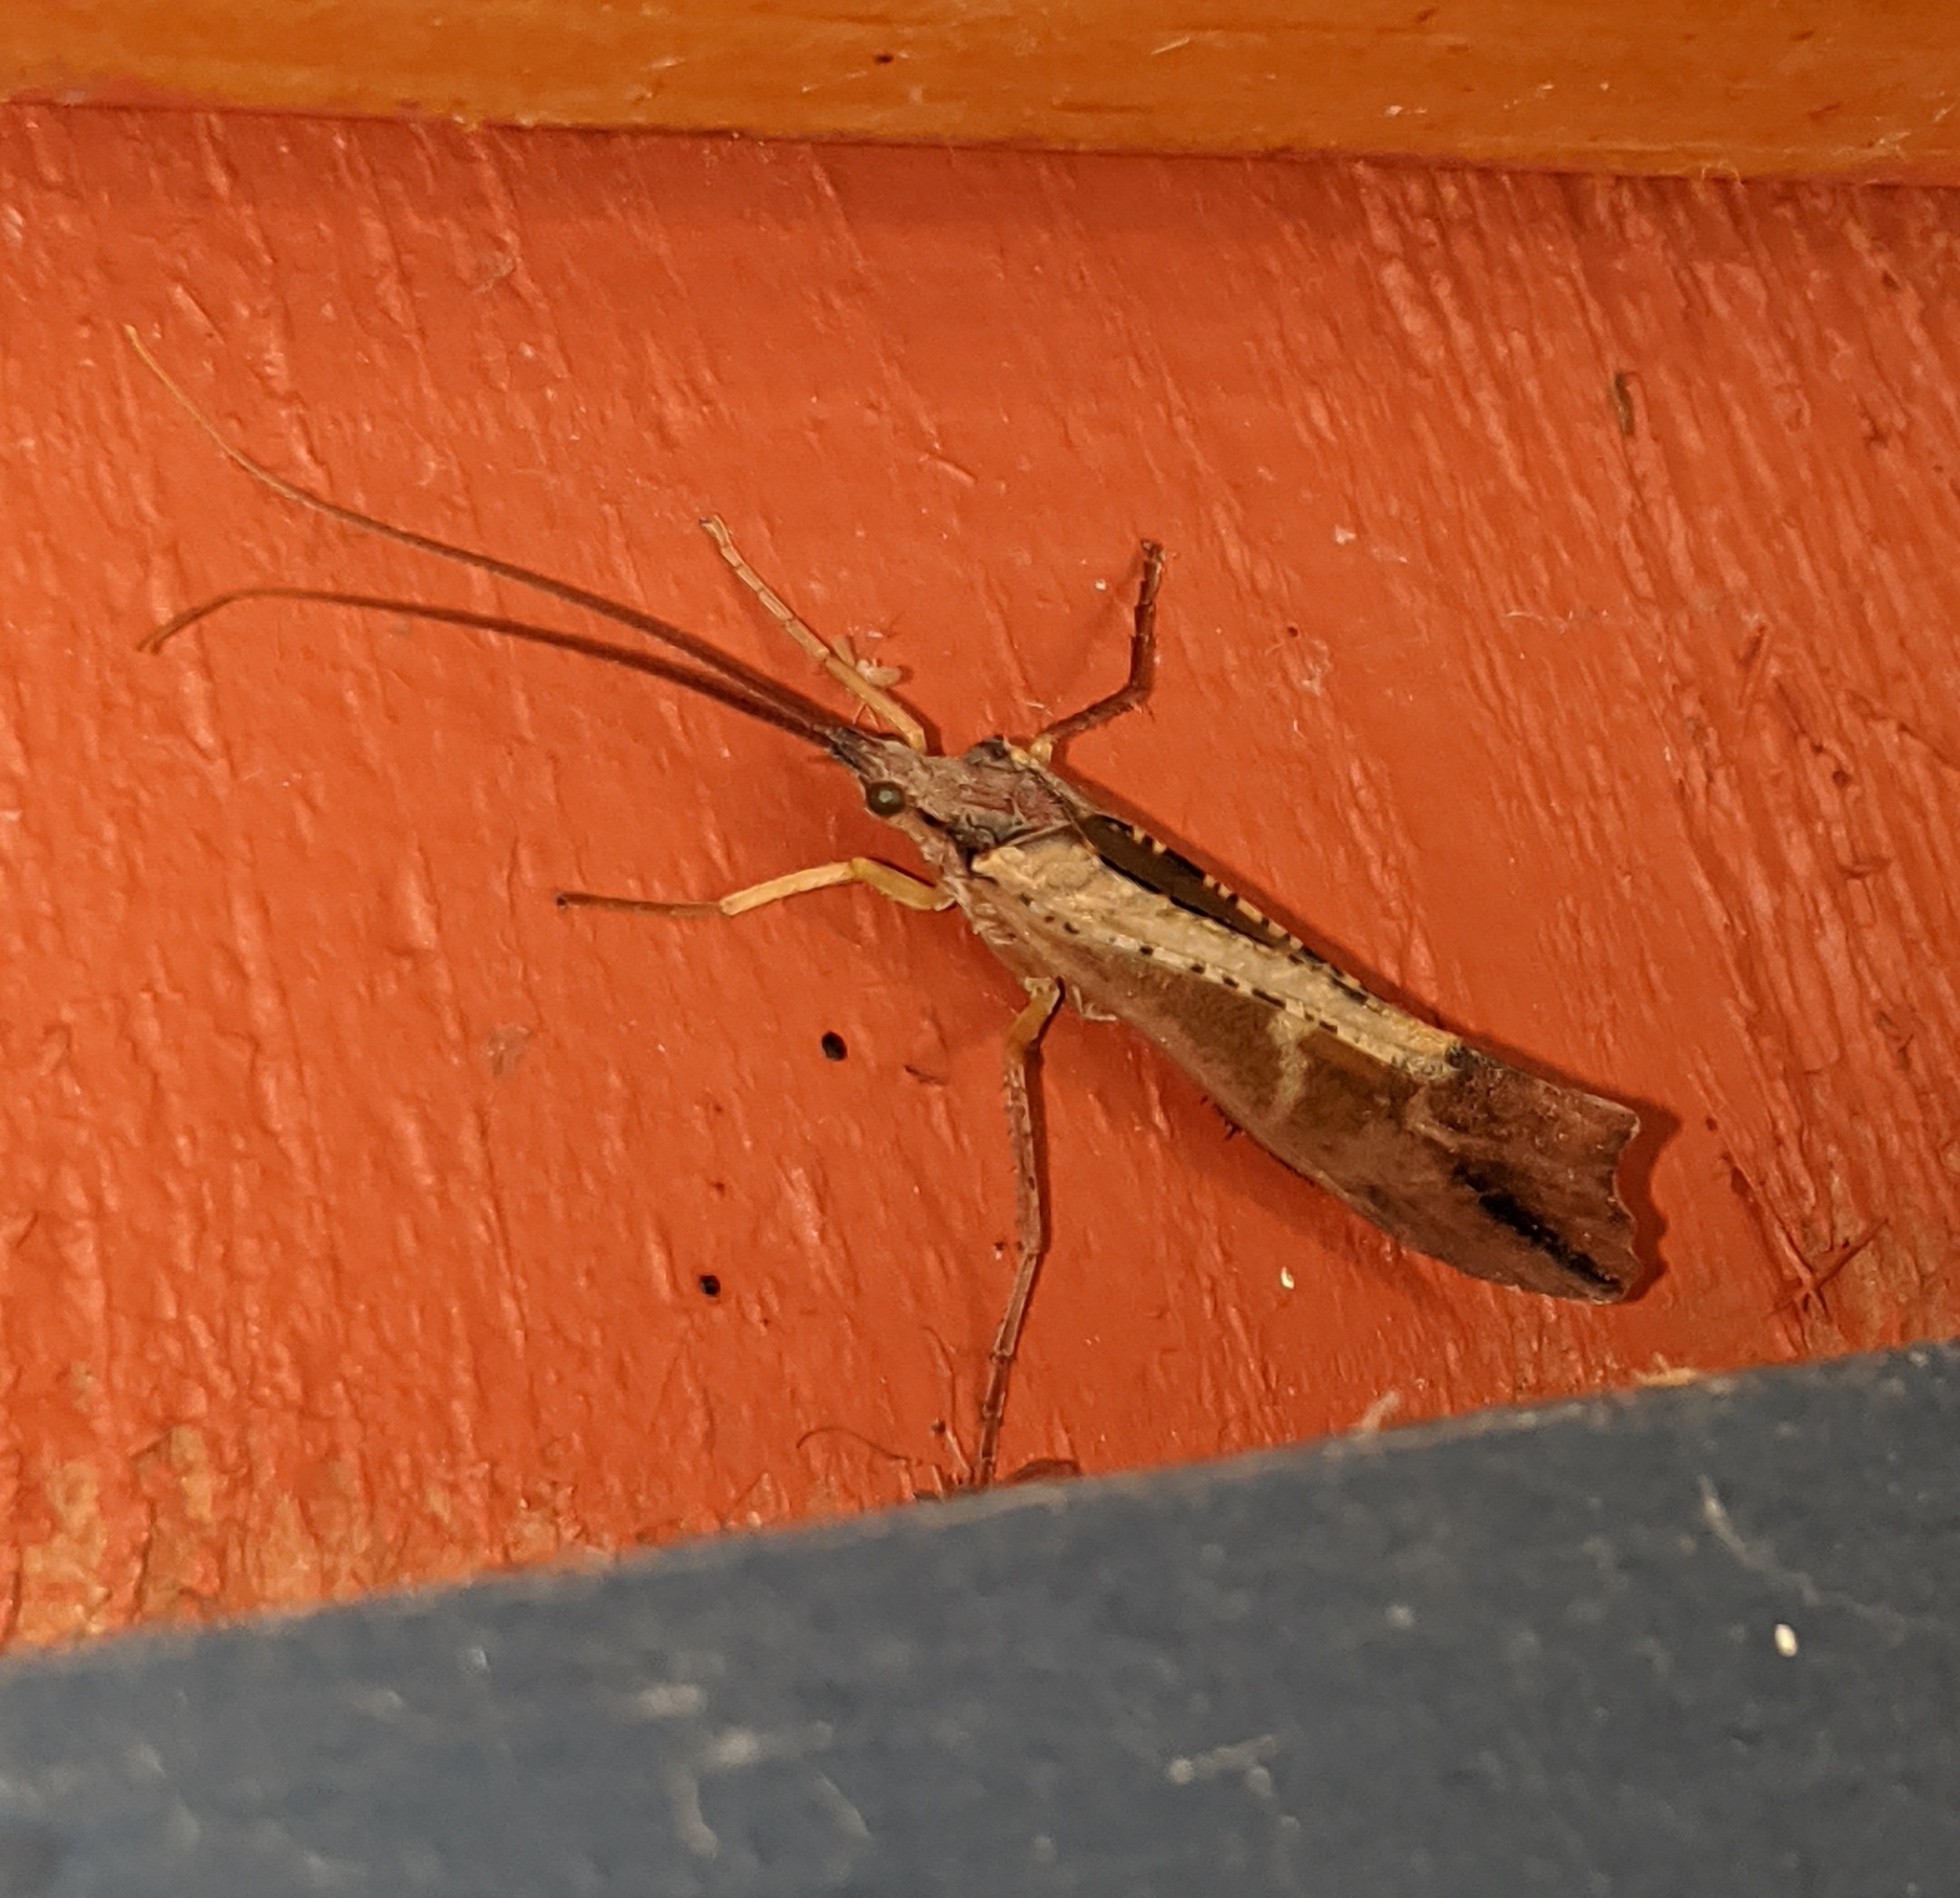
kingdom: Animalia
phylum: Arthropoda
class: Insecta
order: Trichoptera
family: Limnephilidae
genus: Nemotaulius
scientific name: Nemotaulius hostilis
